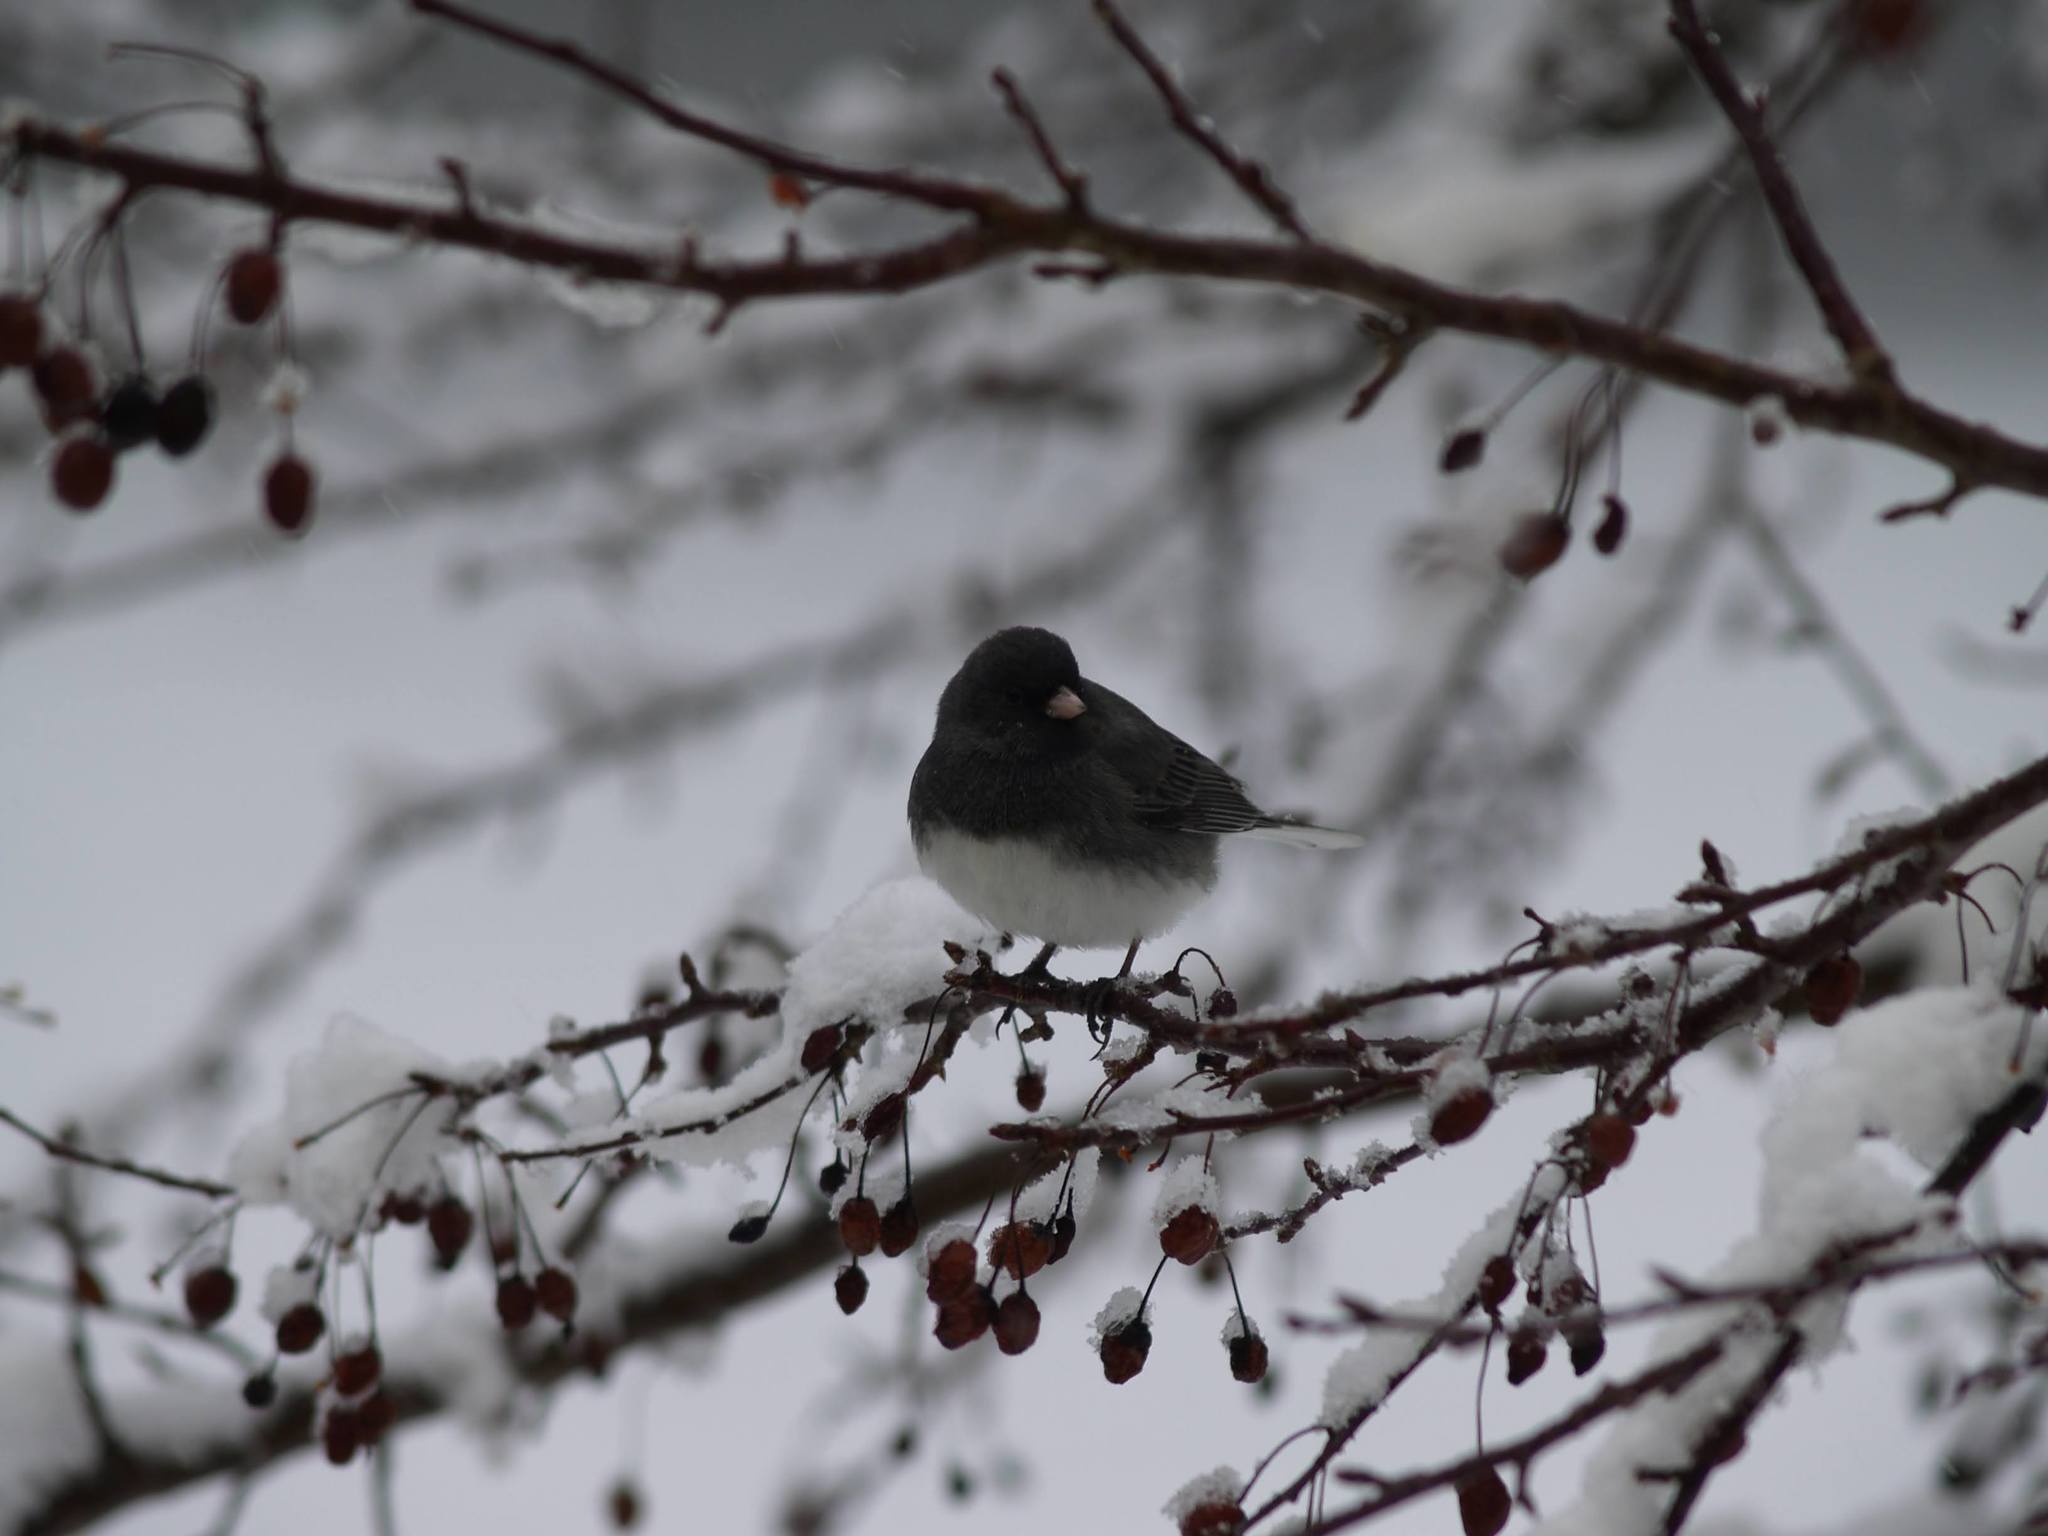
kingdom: Animalia
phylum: Chordata
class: Aves
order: Passeriformes
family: Passerellidae
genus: Junco
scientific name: Junco hyemalis
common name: Dark-eyed junco
